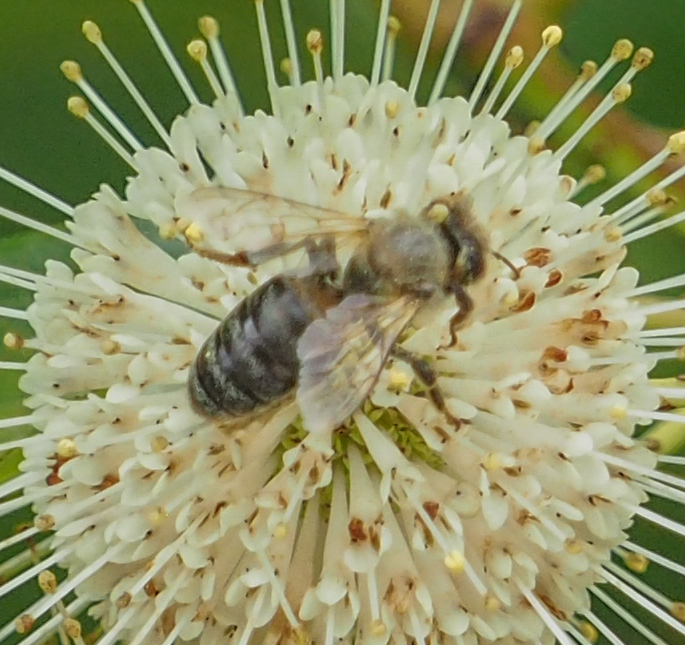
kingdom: Animalia
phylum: Arthropoda
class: Insecta
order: Hymenoptera
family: Apidae
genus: Apis
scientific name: Apis mellifera
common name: Honey bee
